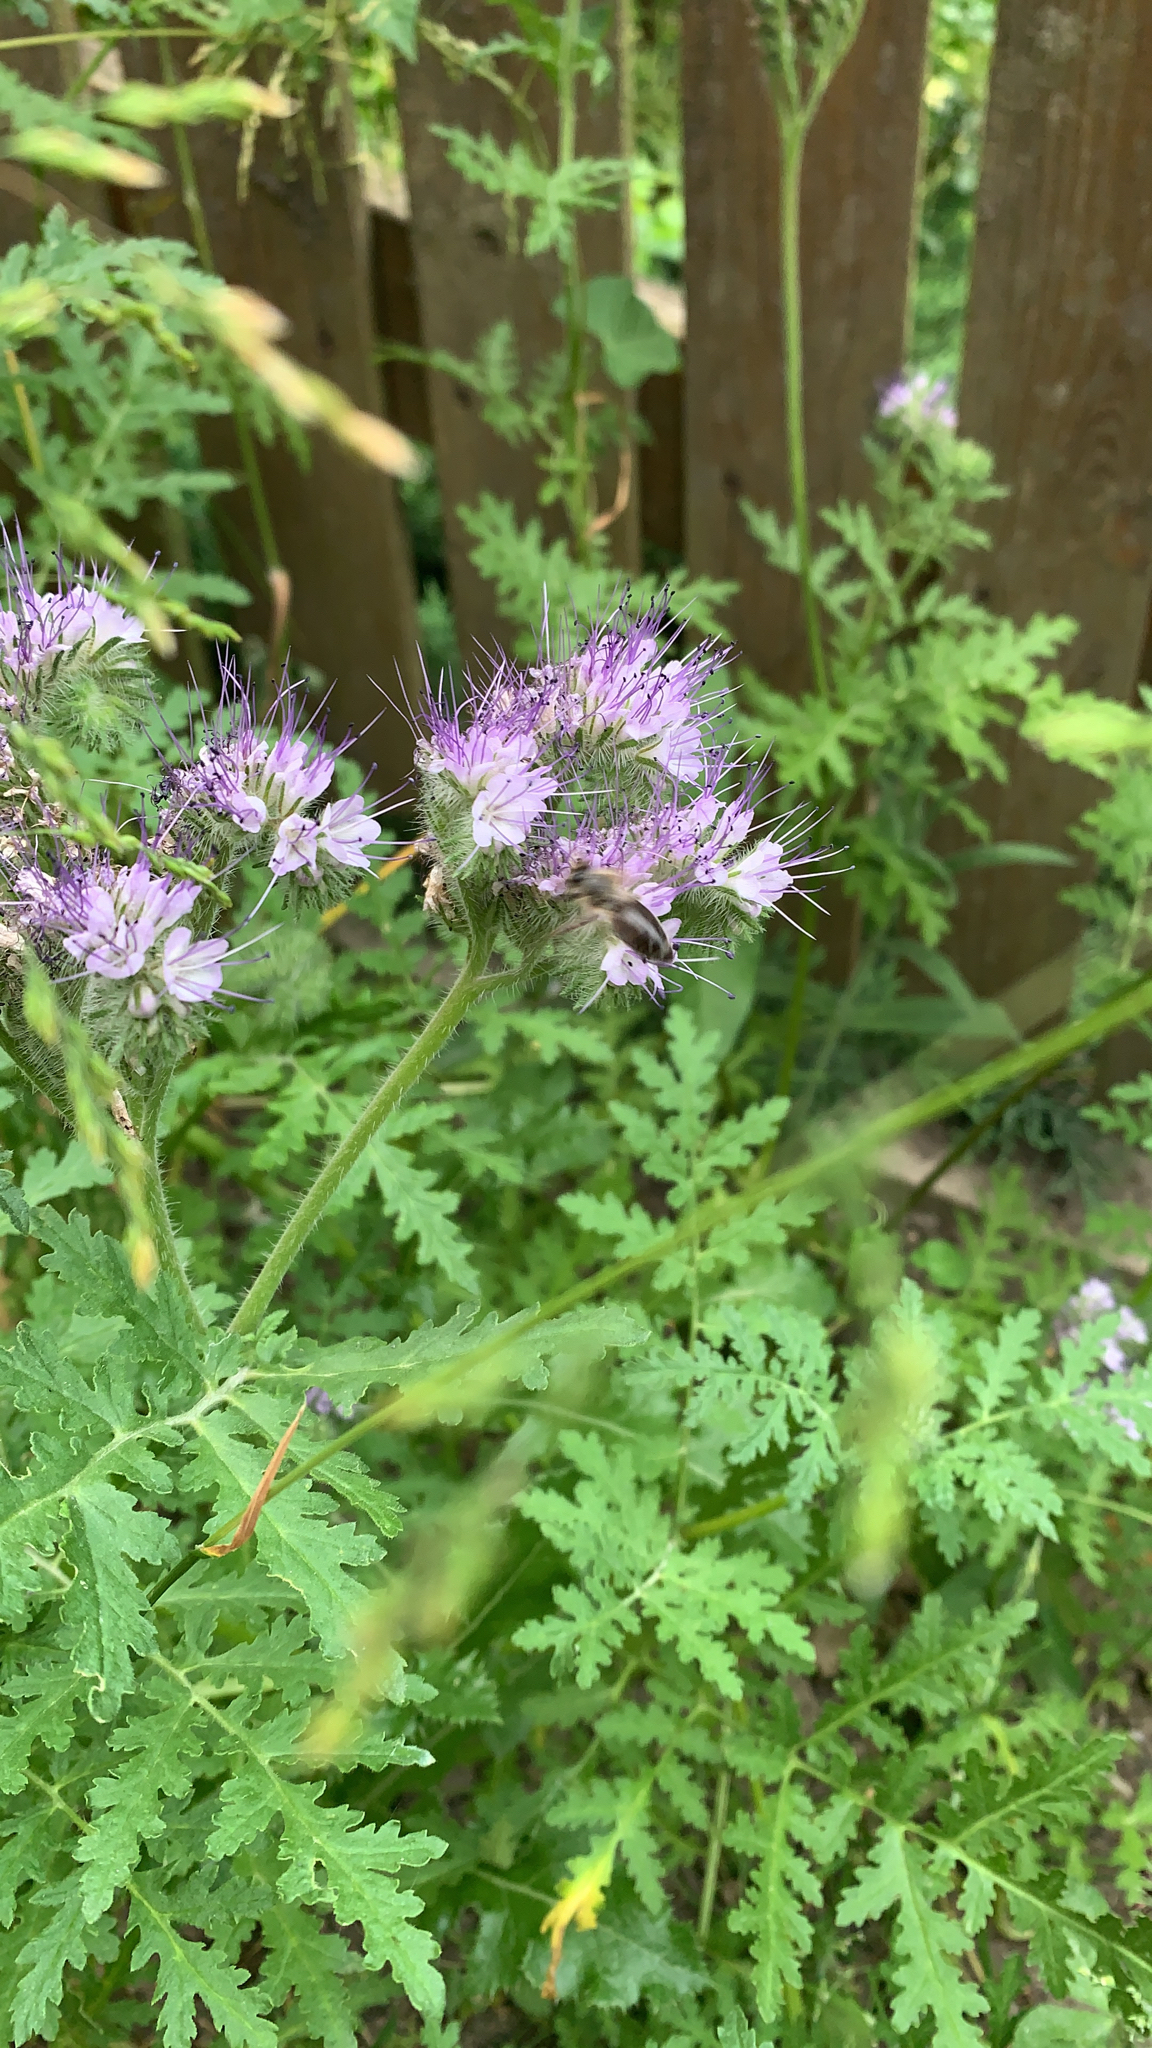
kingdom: Plantae
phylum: Tracheophyta
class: Magnoliopsida
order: Boraginales
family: Hydrophyllaceae
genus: Phacelia
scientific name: Phacelia tanacetifolia
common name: Phacelia
